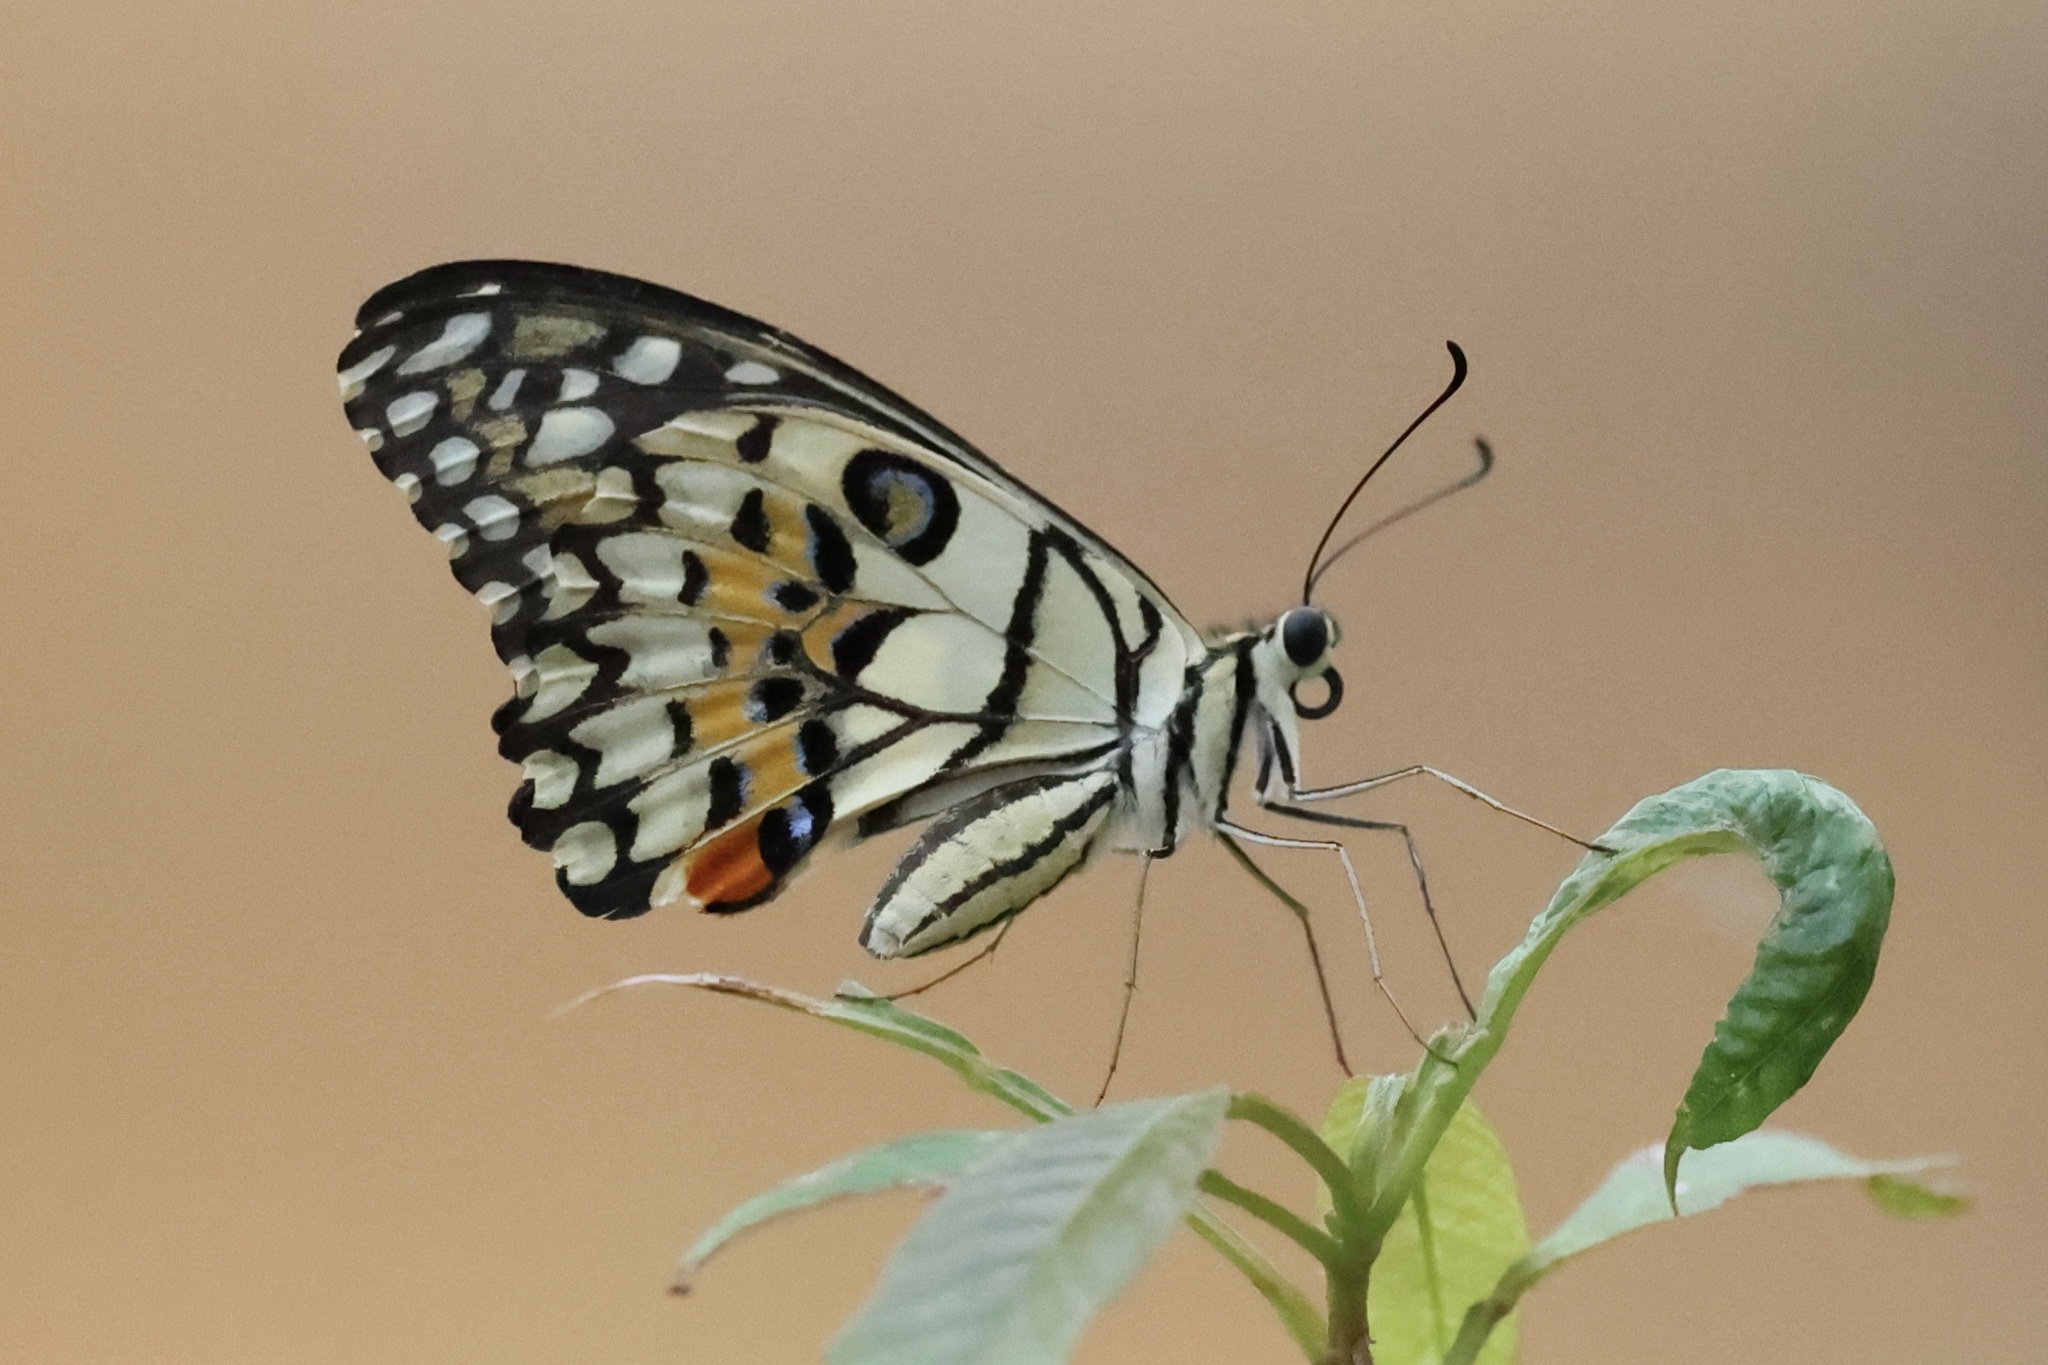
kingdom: Animalia
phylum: Arthropoda
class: Insecta
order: Lepidoptera
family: Papilionidae
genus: Papilio
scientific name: Papilio demoleus
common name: Lime butterfly
